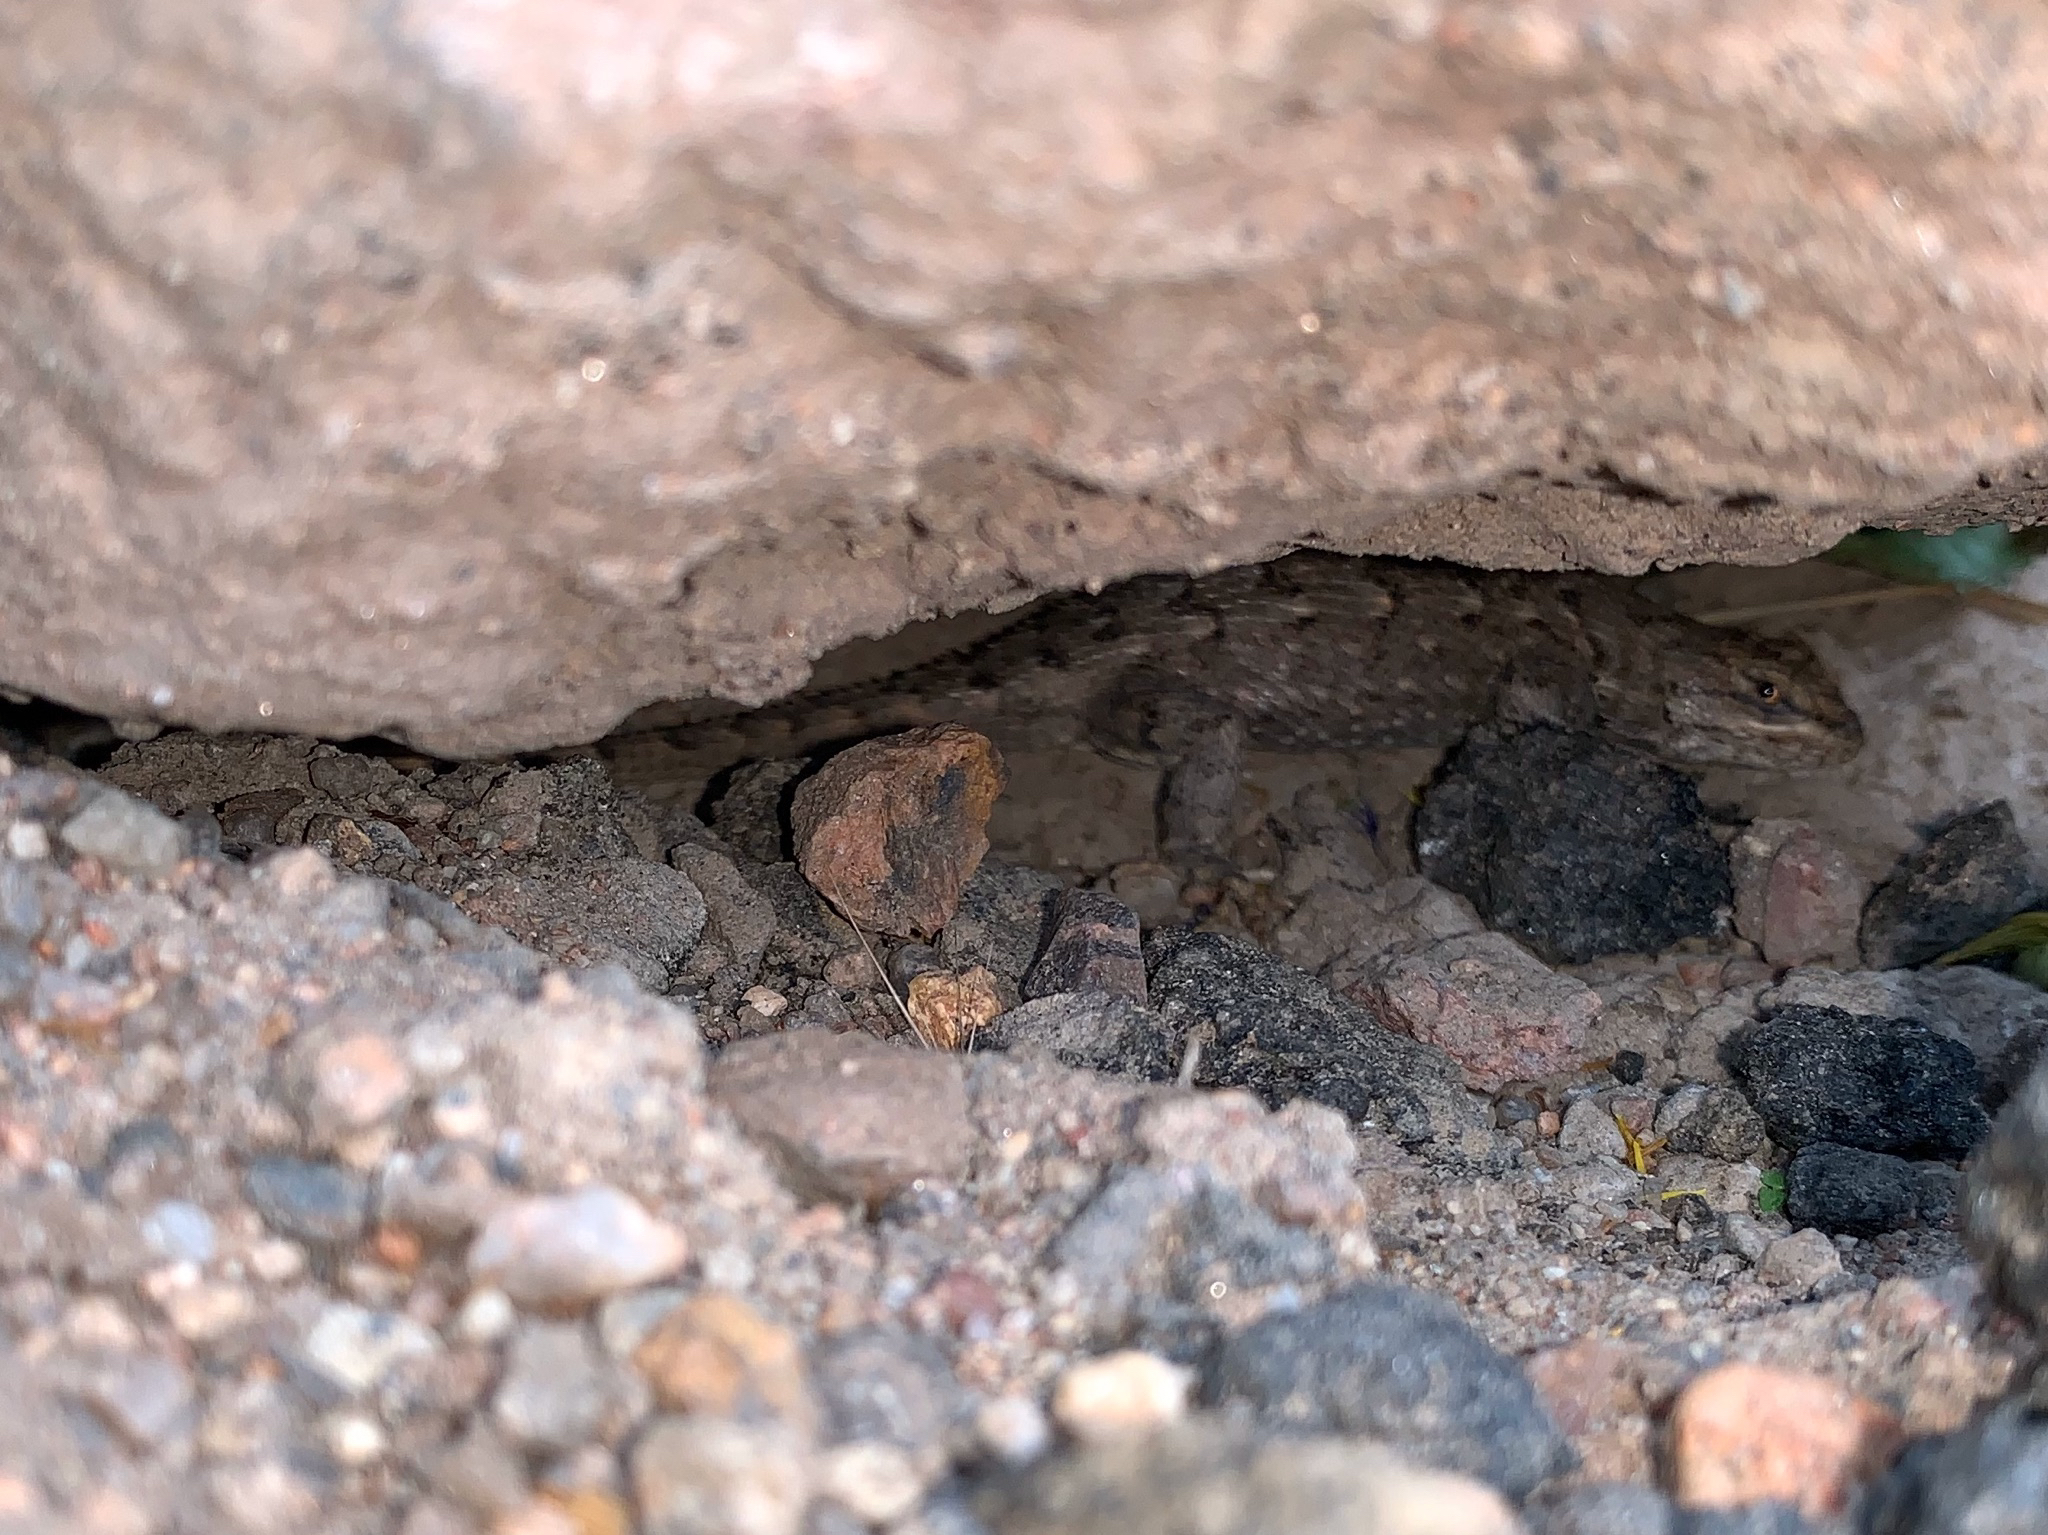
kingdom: Animalia
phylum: Chordata
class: Squamata
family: Phrynosomatidae
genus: Sceloporus
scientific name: Sceloporus consobrinus
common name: Southern prairie lizard
